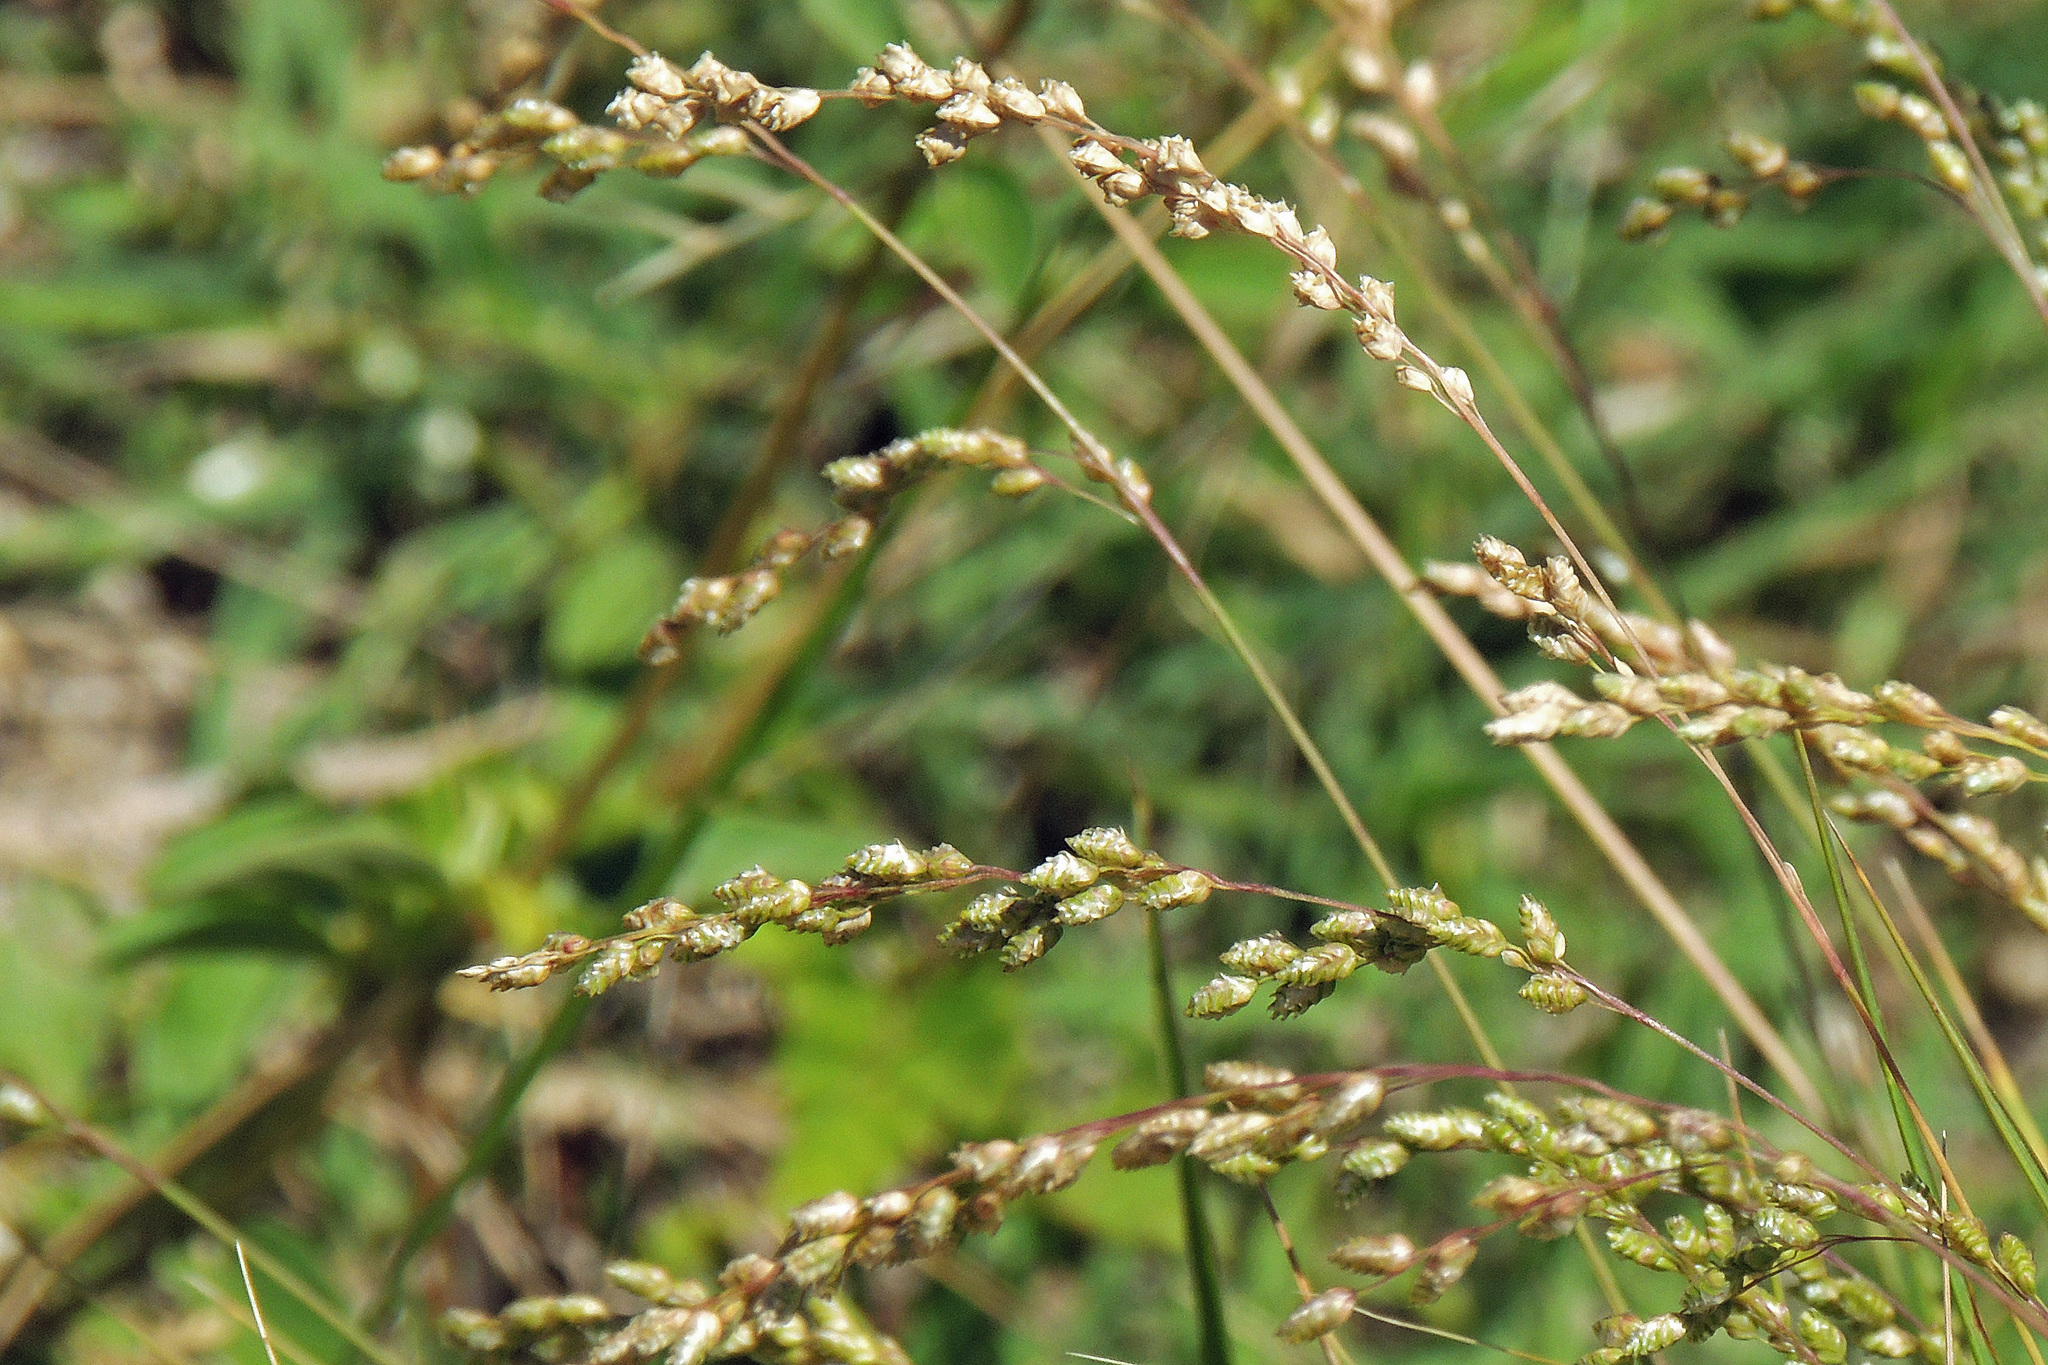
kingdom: Plantae
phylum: Tracheophyta
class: Liliopsida
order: Poales
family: Poaceae
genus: Chascolytrum
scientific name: Chascolytrum subaristatum
